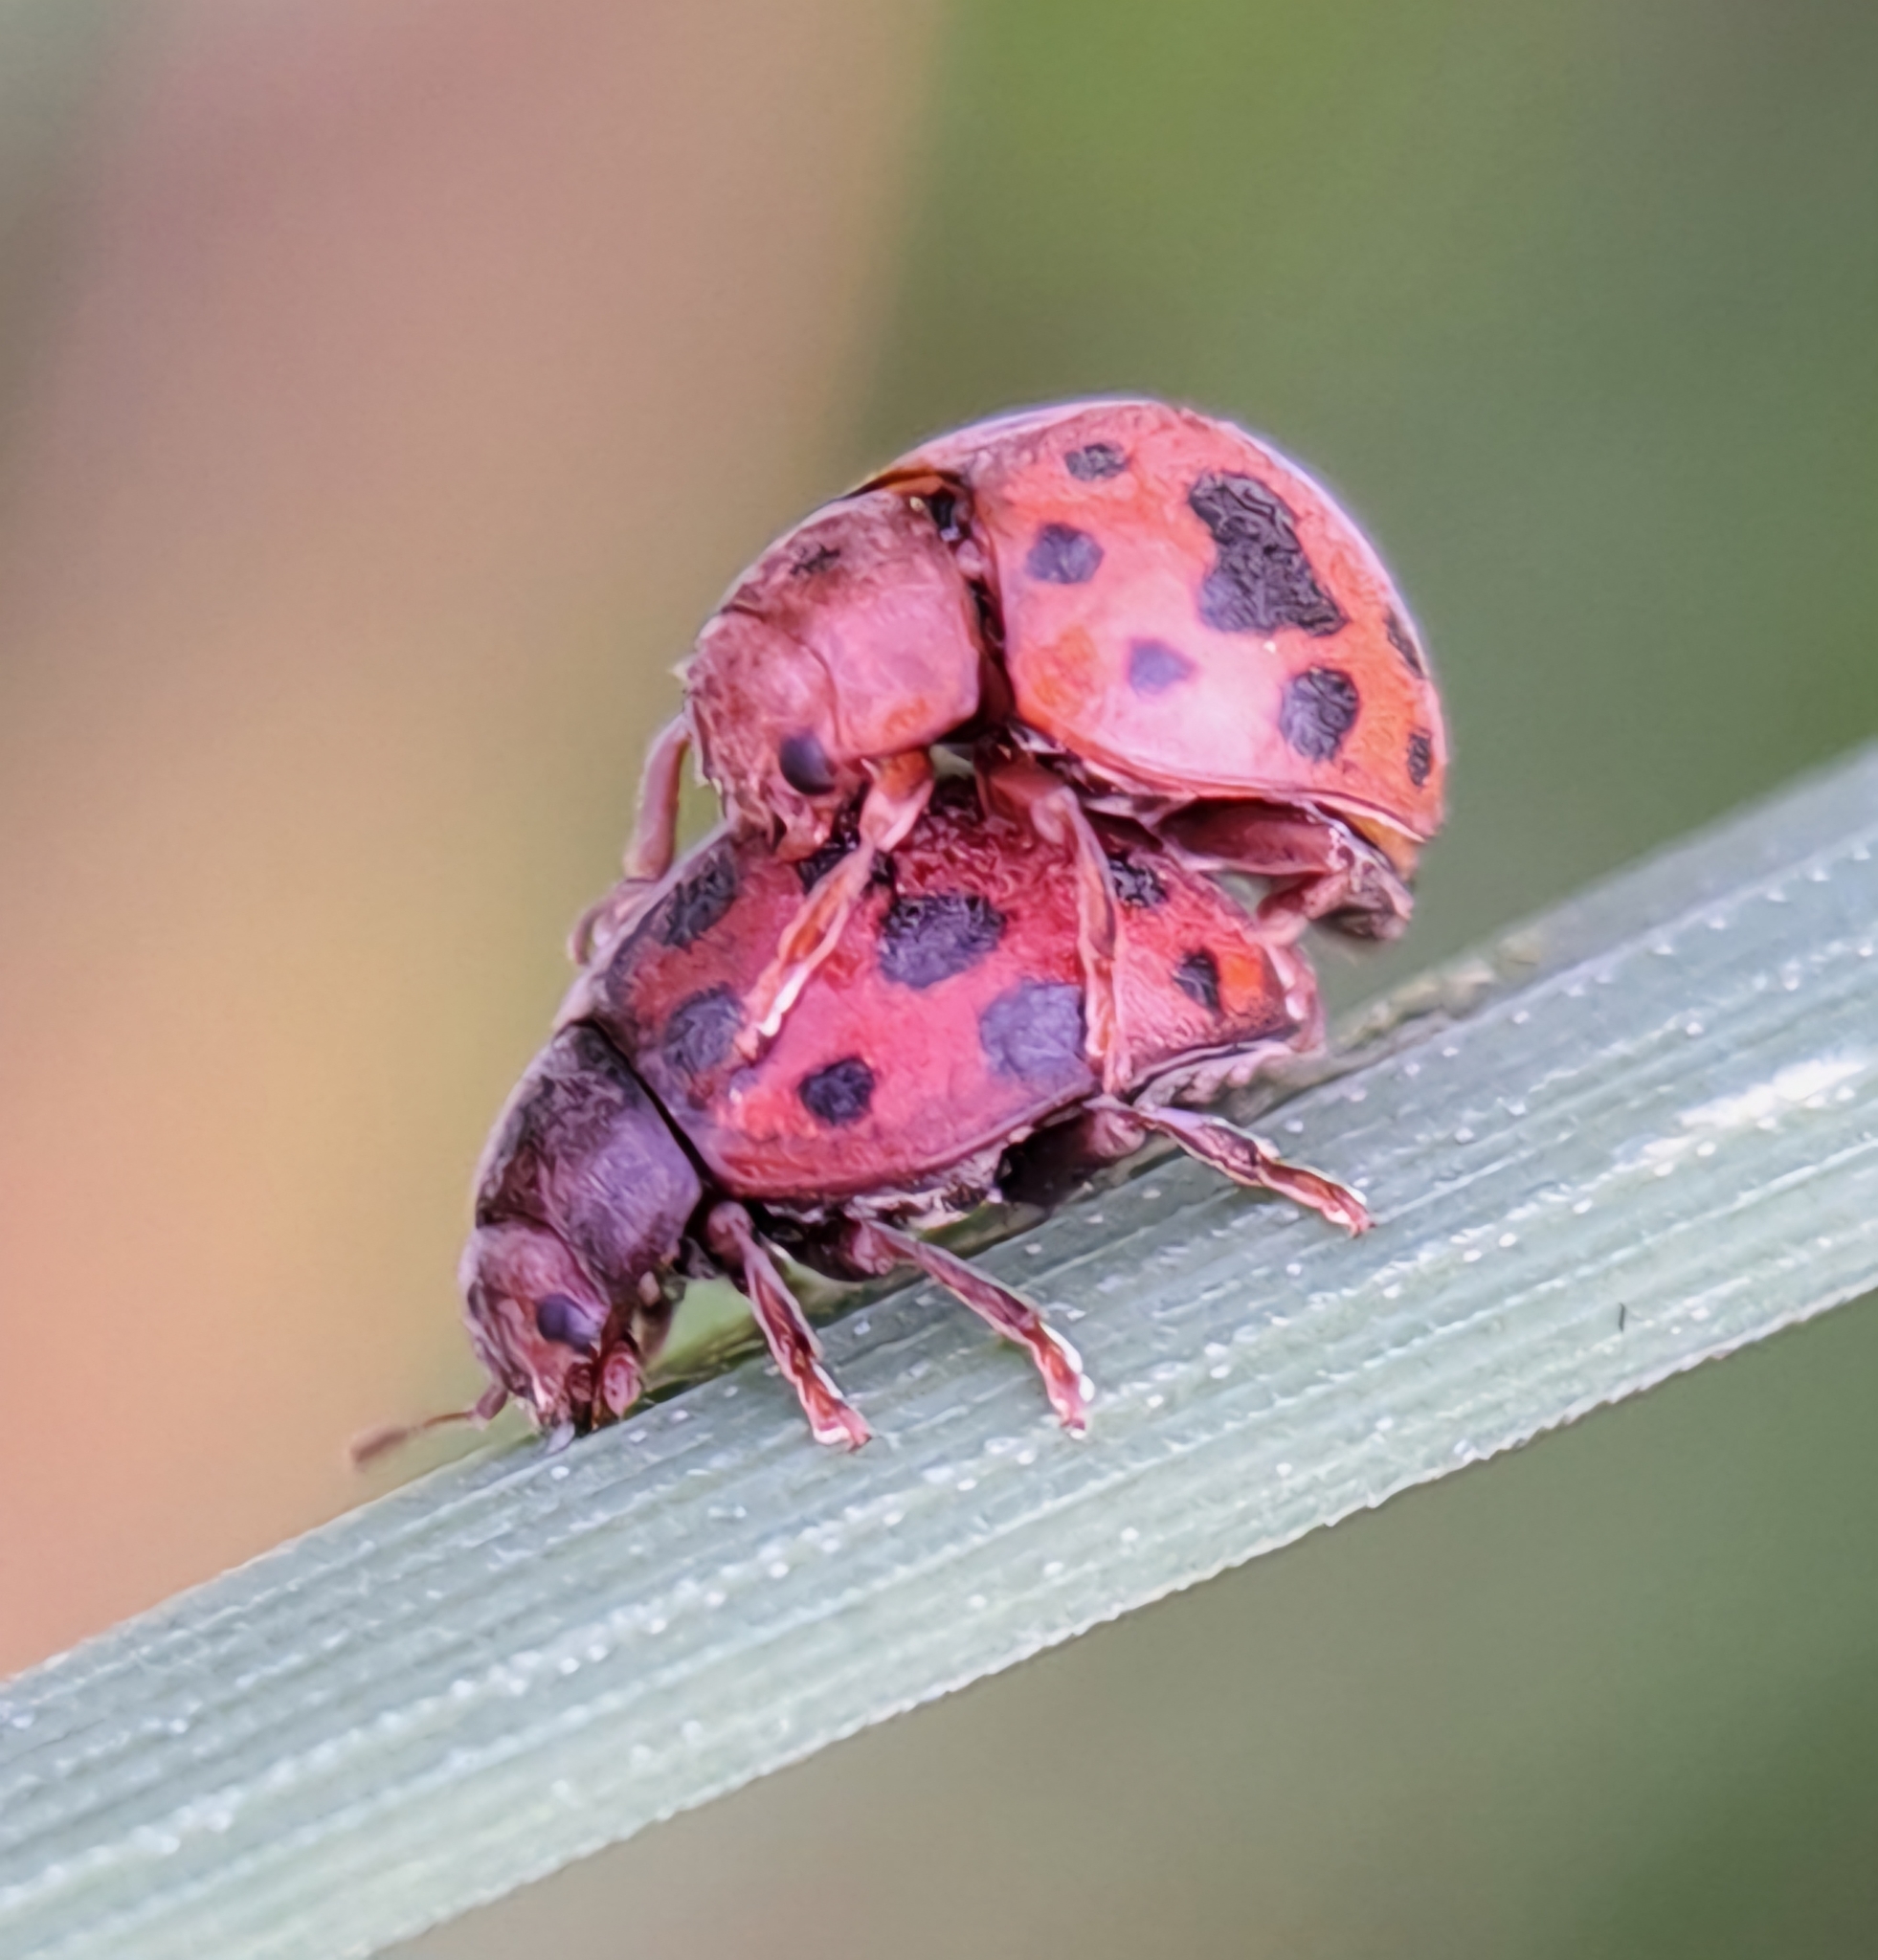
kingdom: Animalia
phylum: Arthropoda
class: Insecta
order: Coleoptera
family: Coccinellidae
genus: Subcoccinella
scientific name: Subcoccinella vigintiquatuorpunctata
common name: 24-spot ladybird
